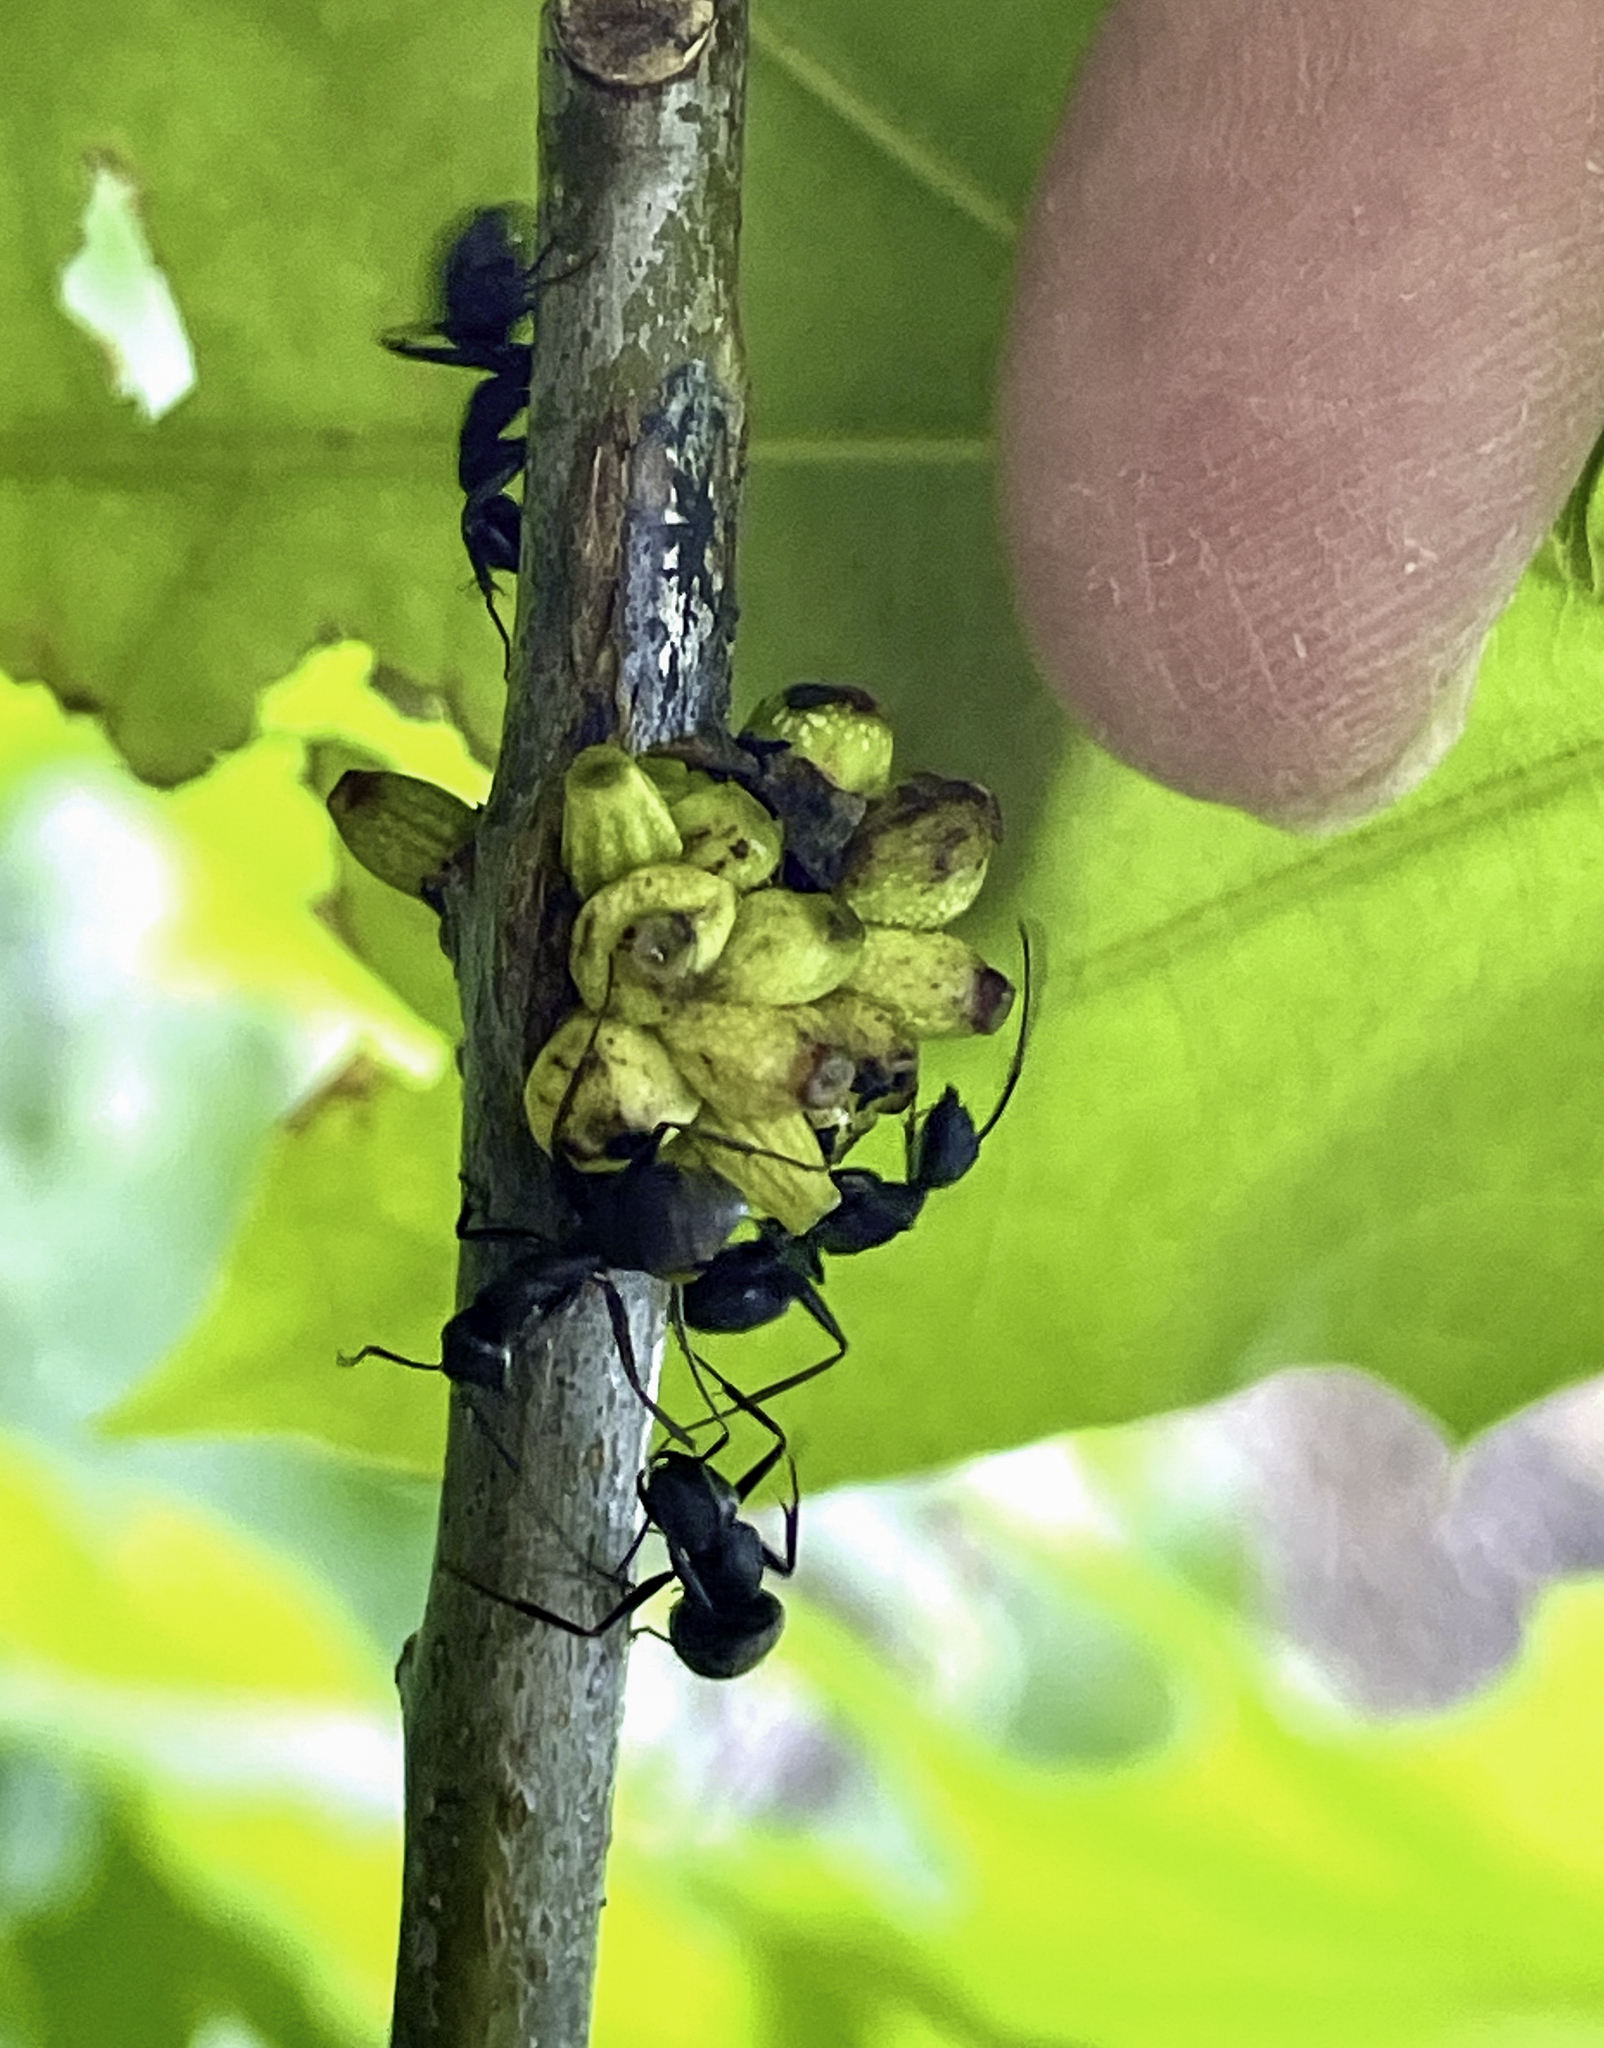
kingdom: Animalia
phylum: Arthropoda
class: Insecta
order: Hymenoptera
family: Cynipidae
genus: Callirhytis
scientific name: Callirhytis
